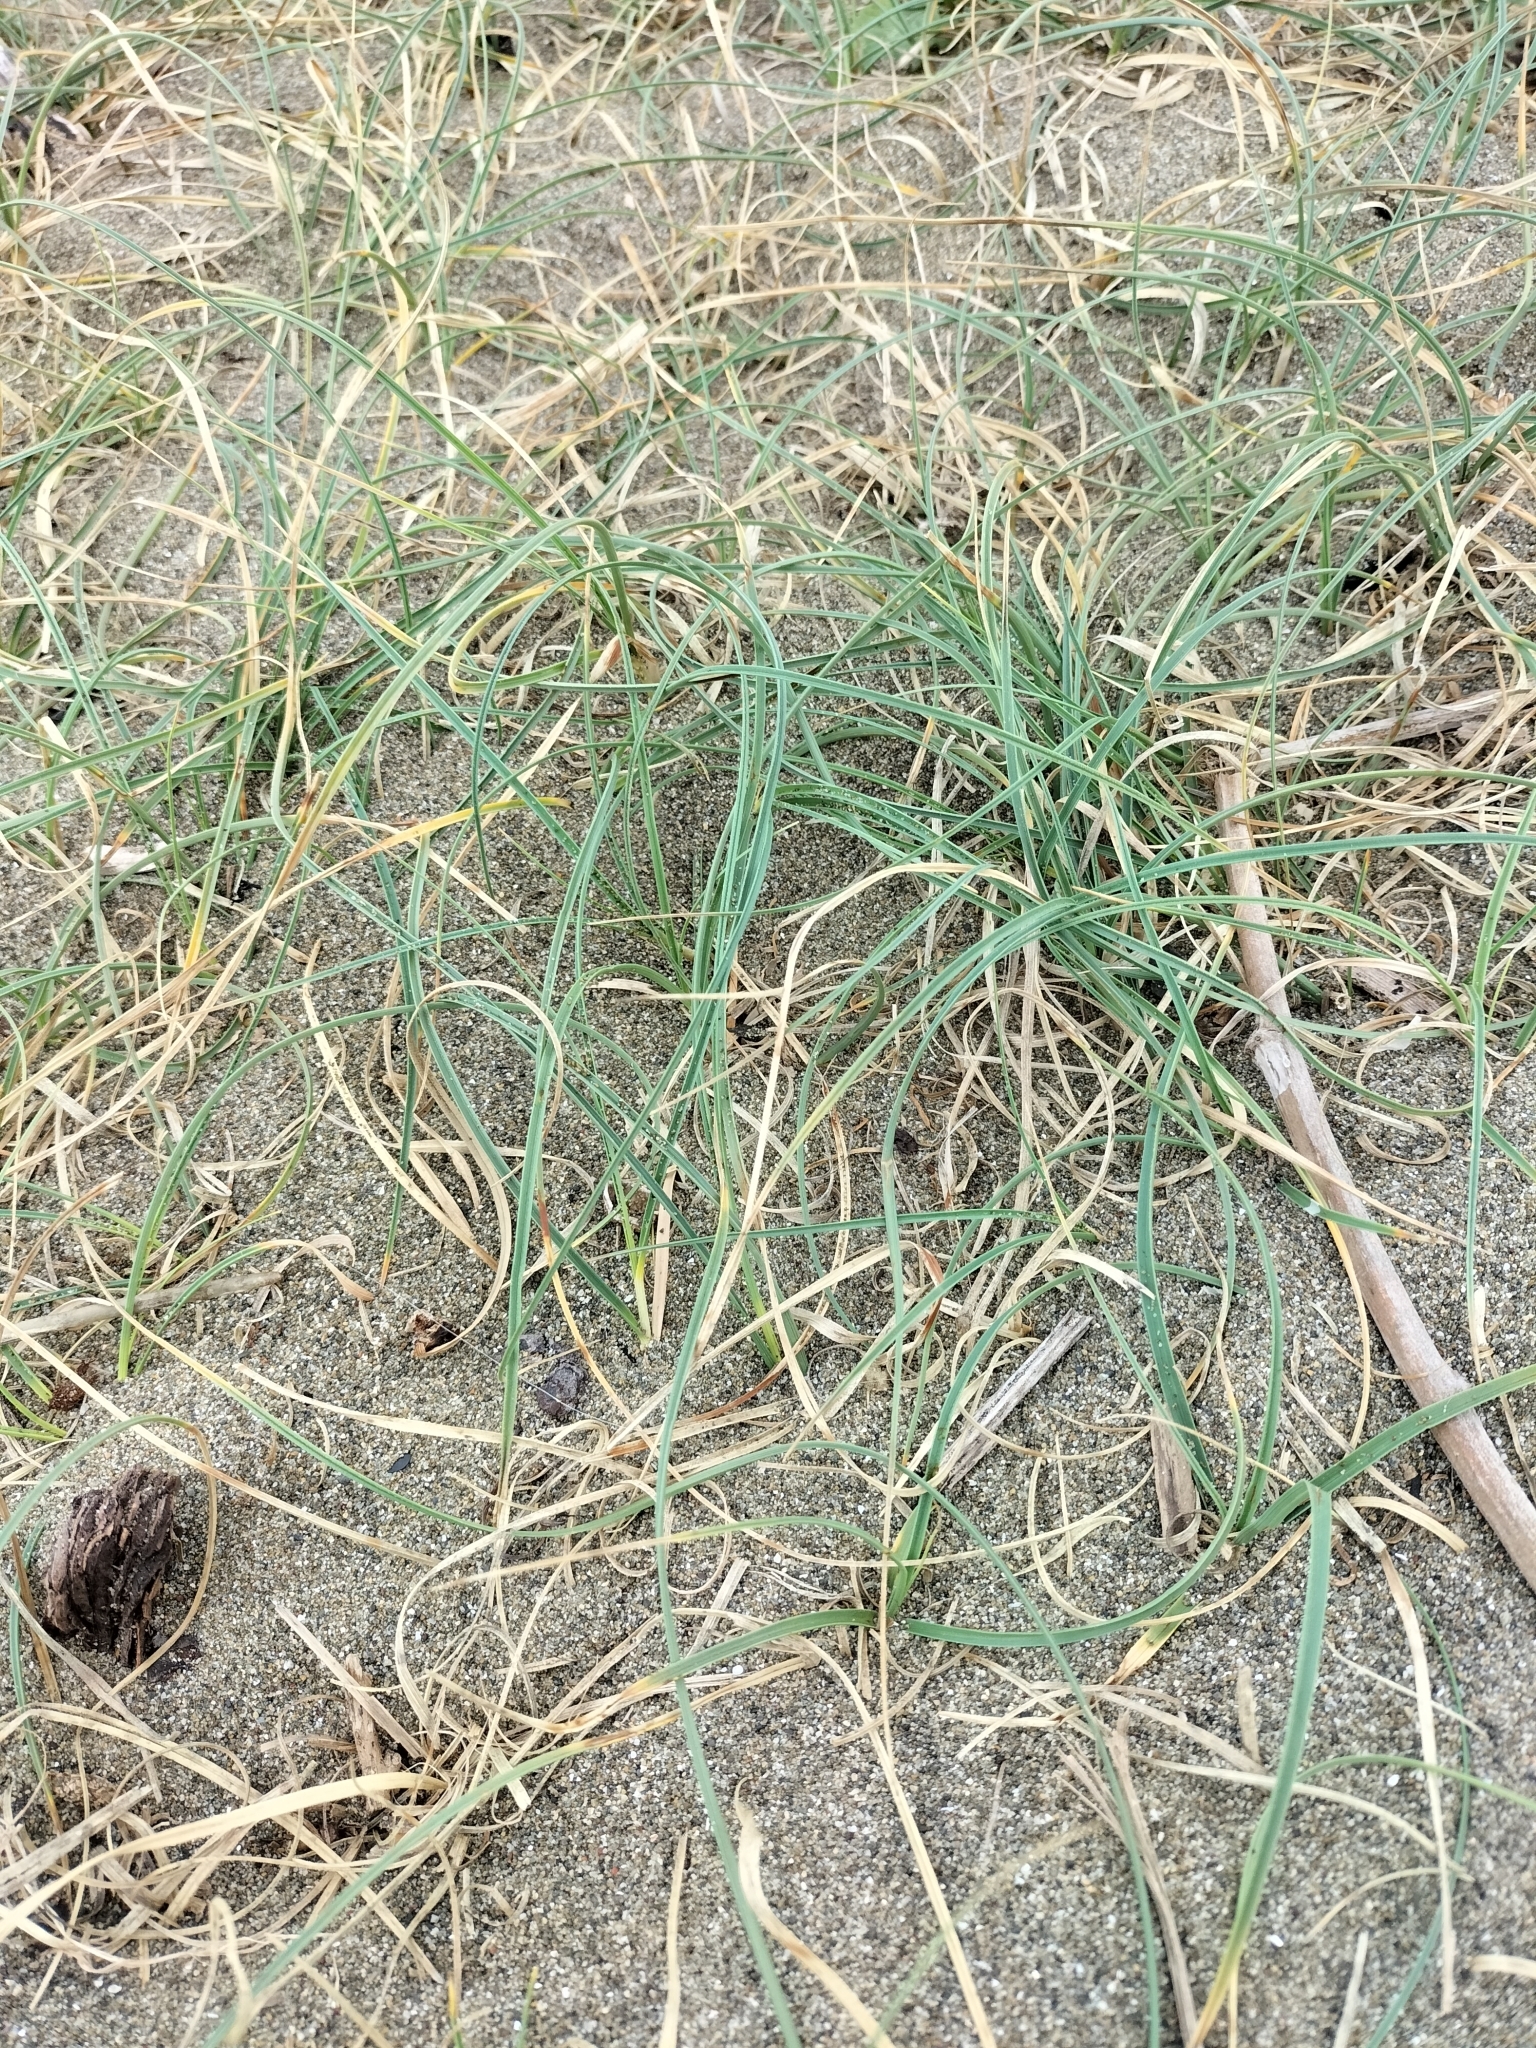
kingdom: Plantae
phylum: Tracheophyta
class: Liliopsida
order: Poales
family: Cyperaceae
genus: Carex
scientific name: Carex pumila
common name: Dwarf sedge
